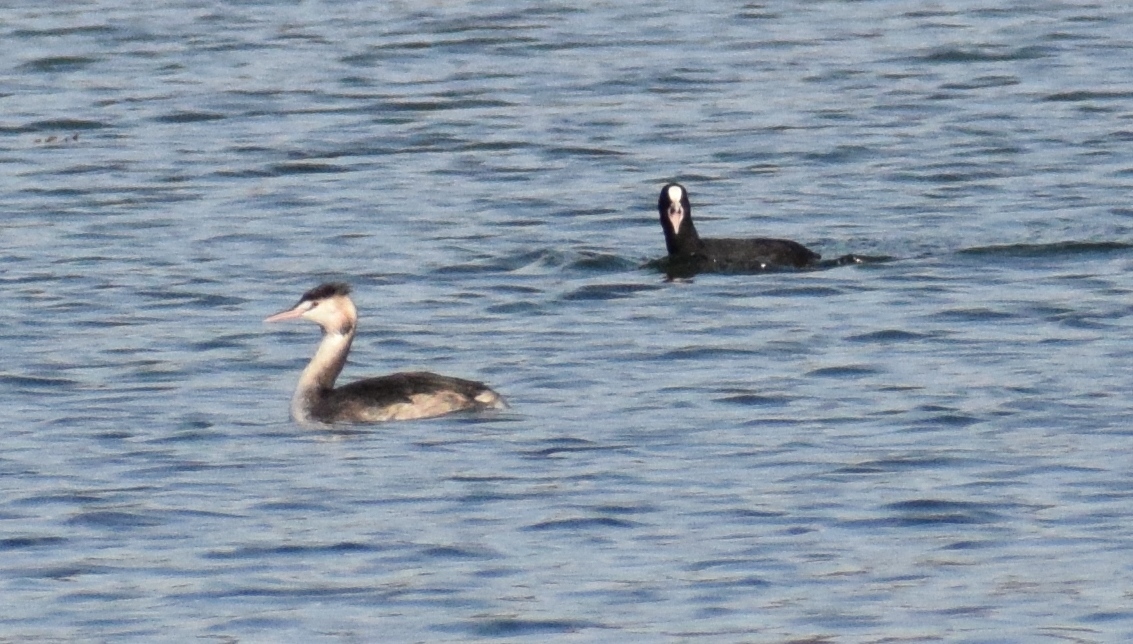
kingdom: Animalia
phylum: Chordata
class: Aves
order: Podicipediformes
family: Podicipedidae
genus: Podiceps
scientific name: Podiceps cristatus
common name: Great crested grebe
